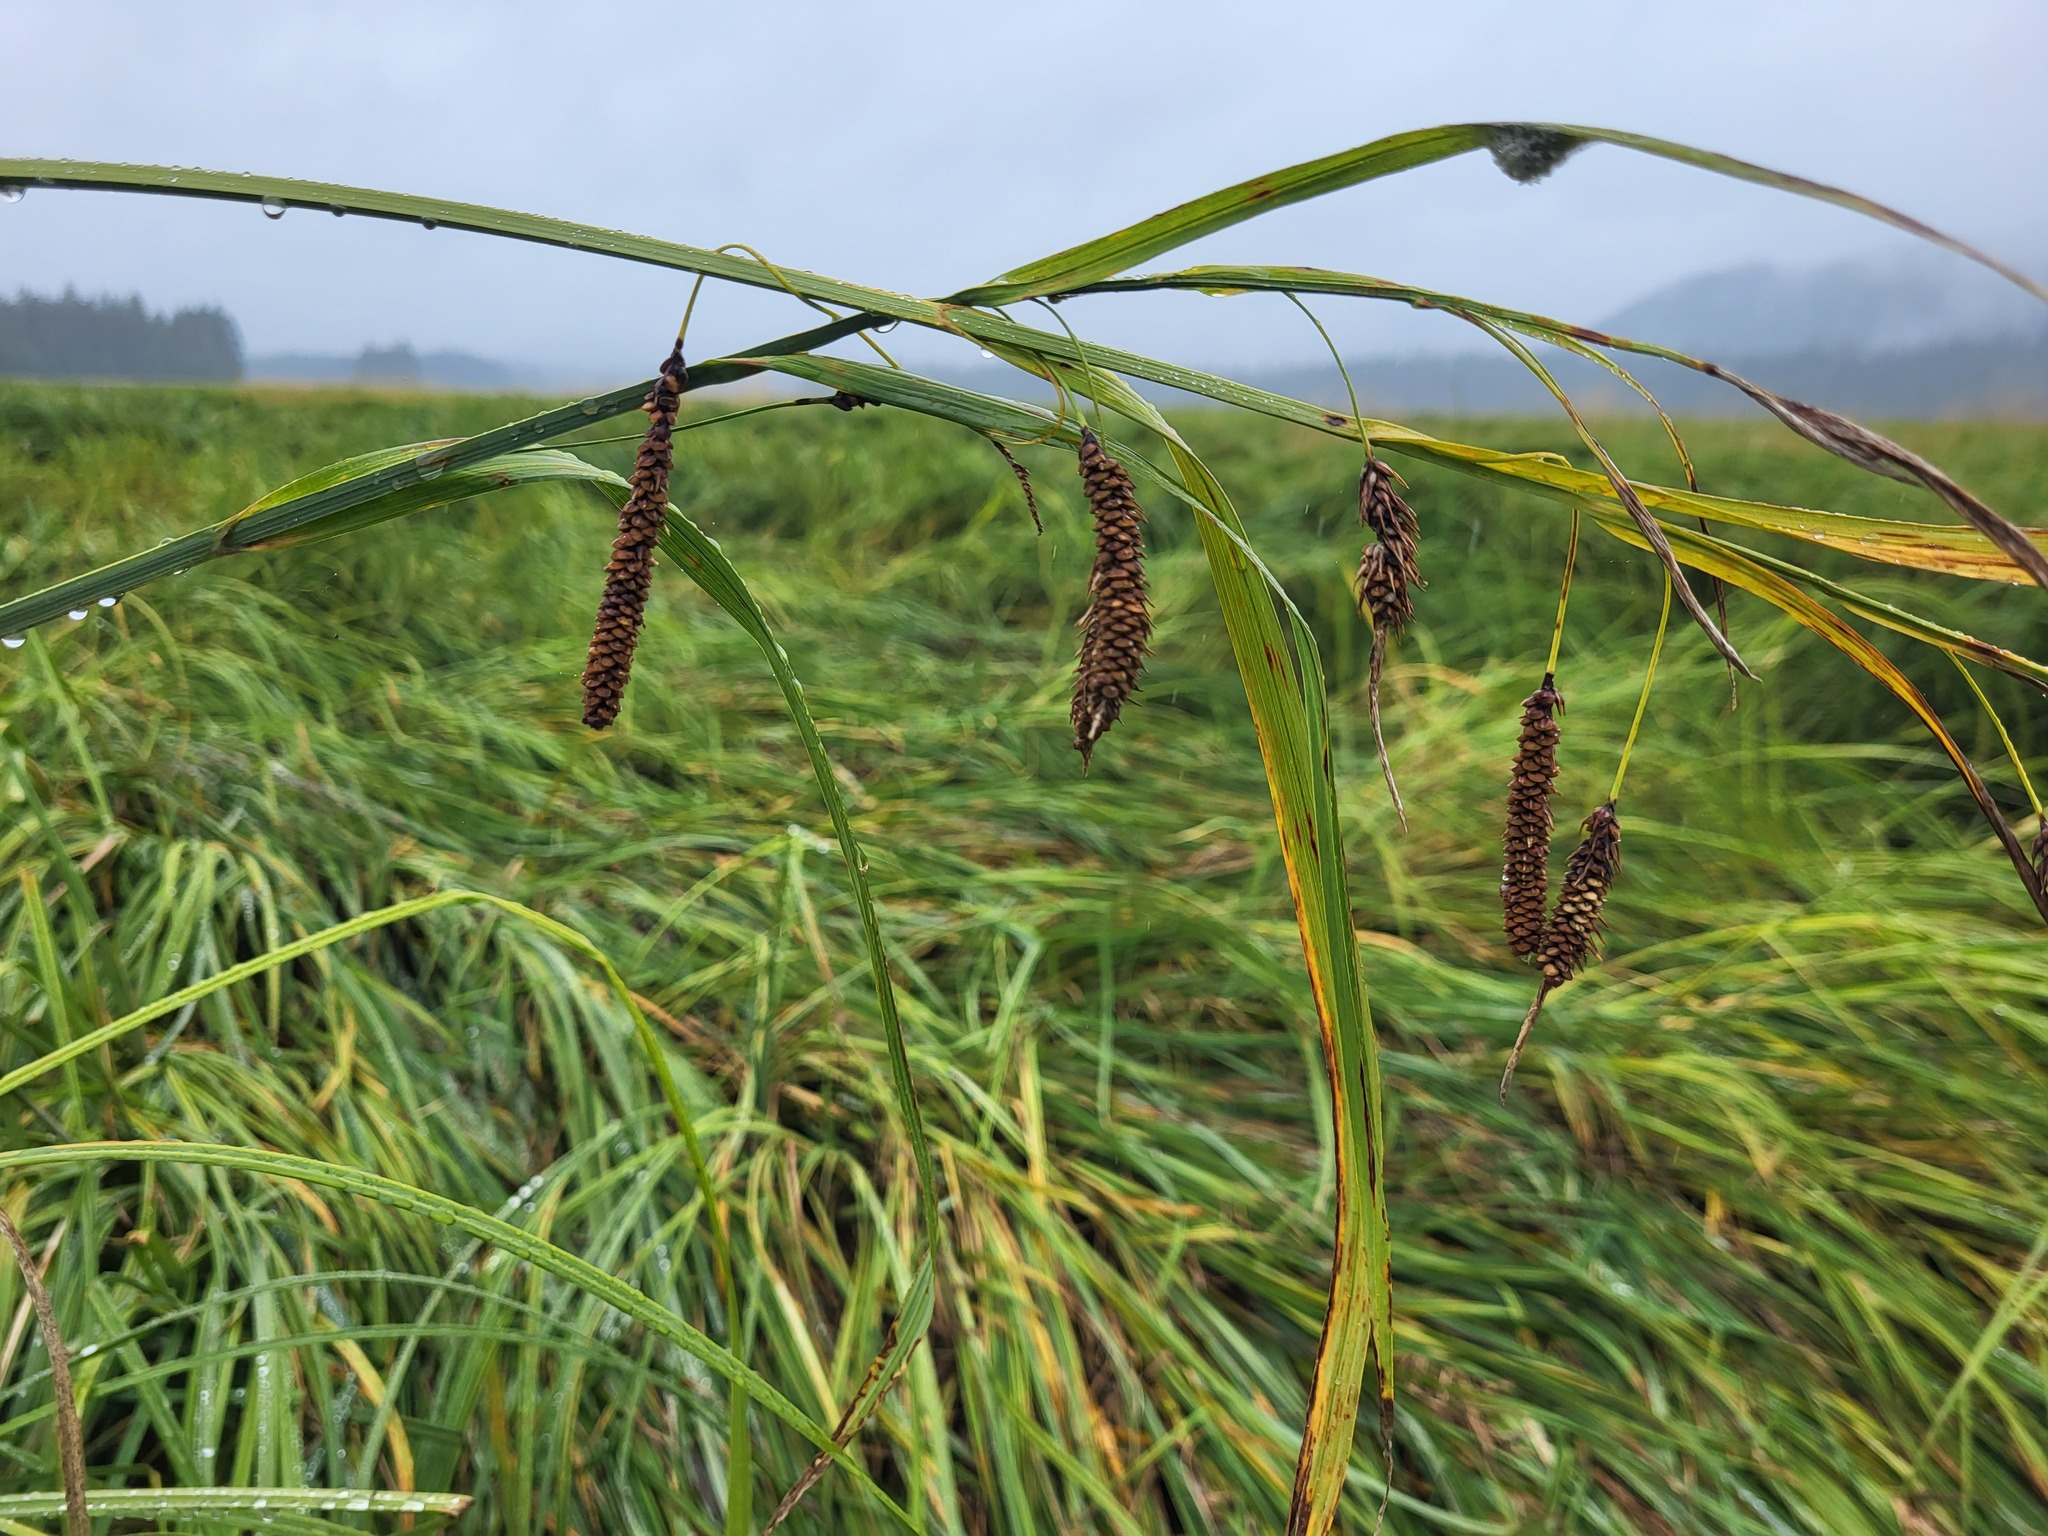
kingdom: Plantae
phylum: Tracheophyta
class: Liliopsida
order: Poales
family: Cyperaceae
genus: Carex
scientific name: Carex lyngbyei
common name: Lyngbye's sedge
